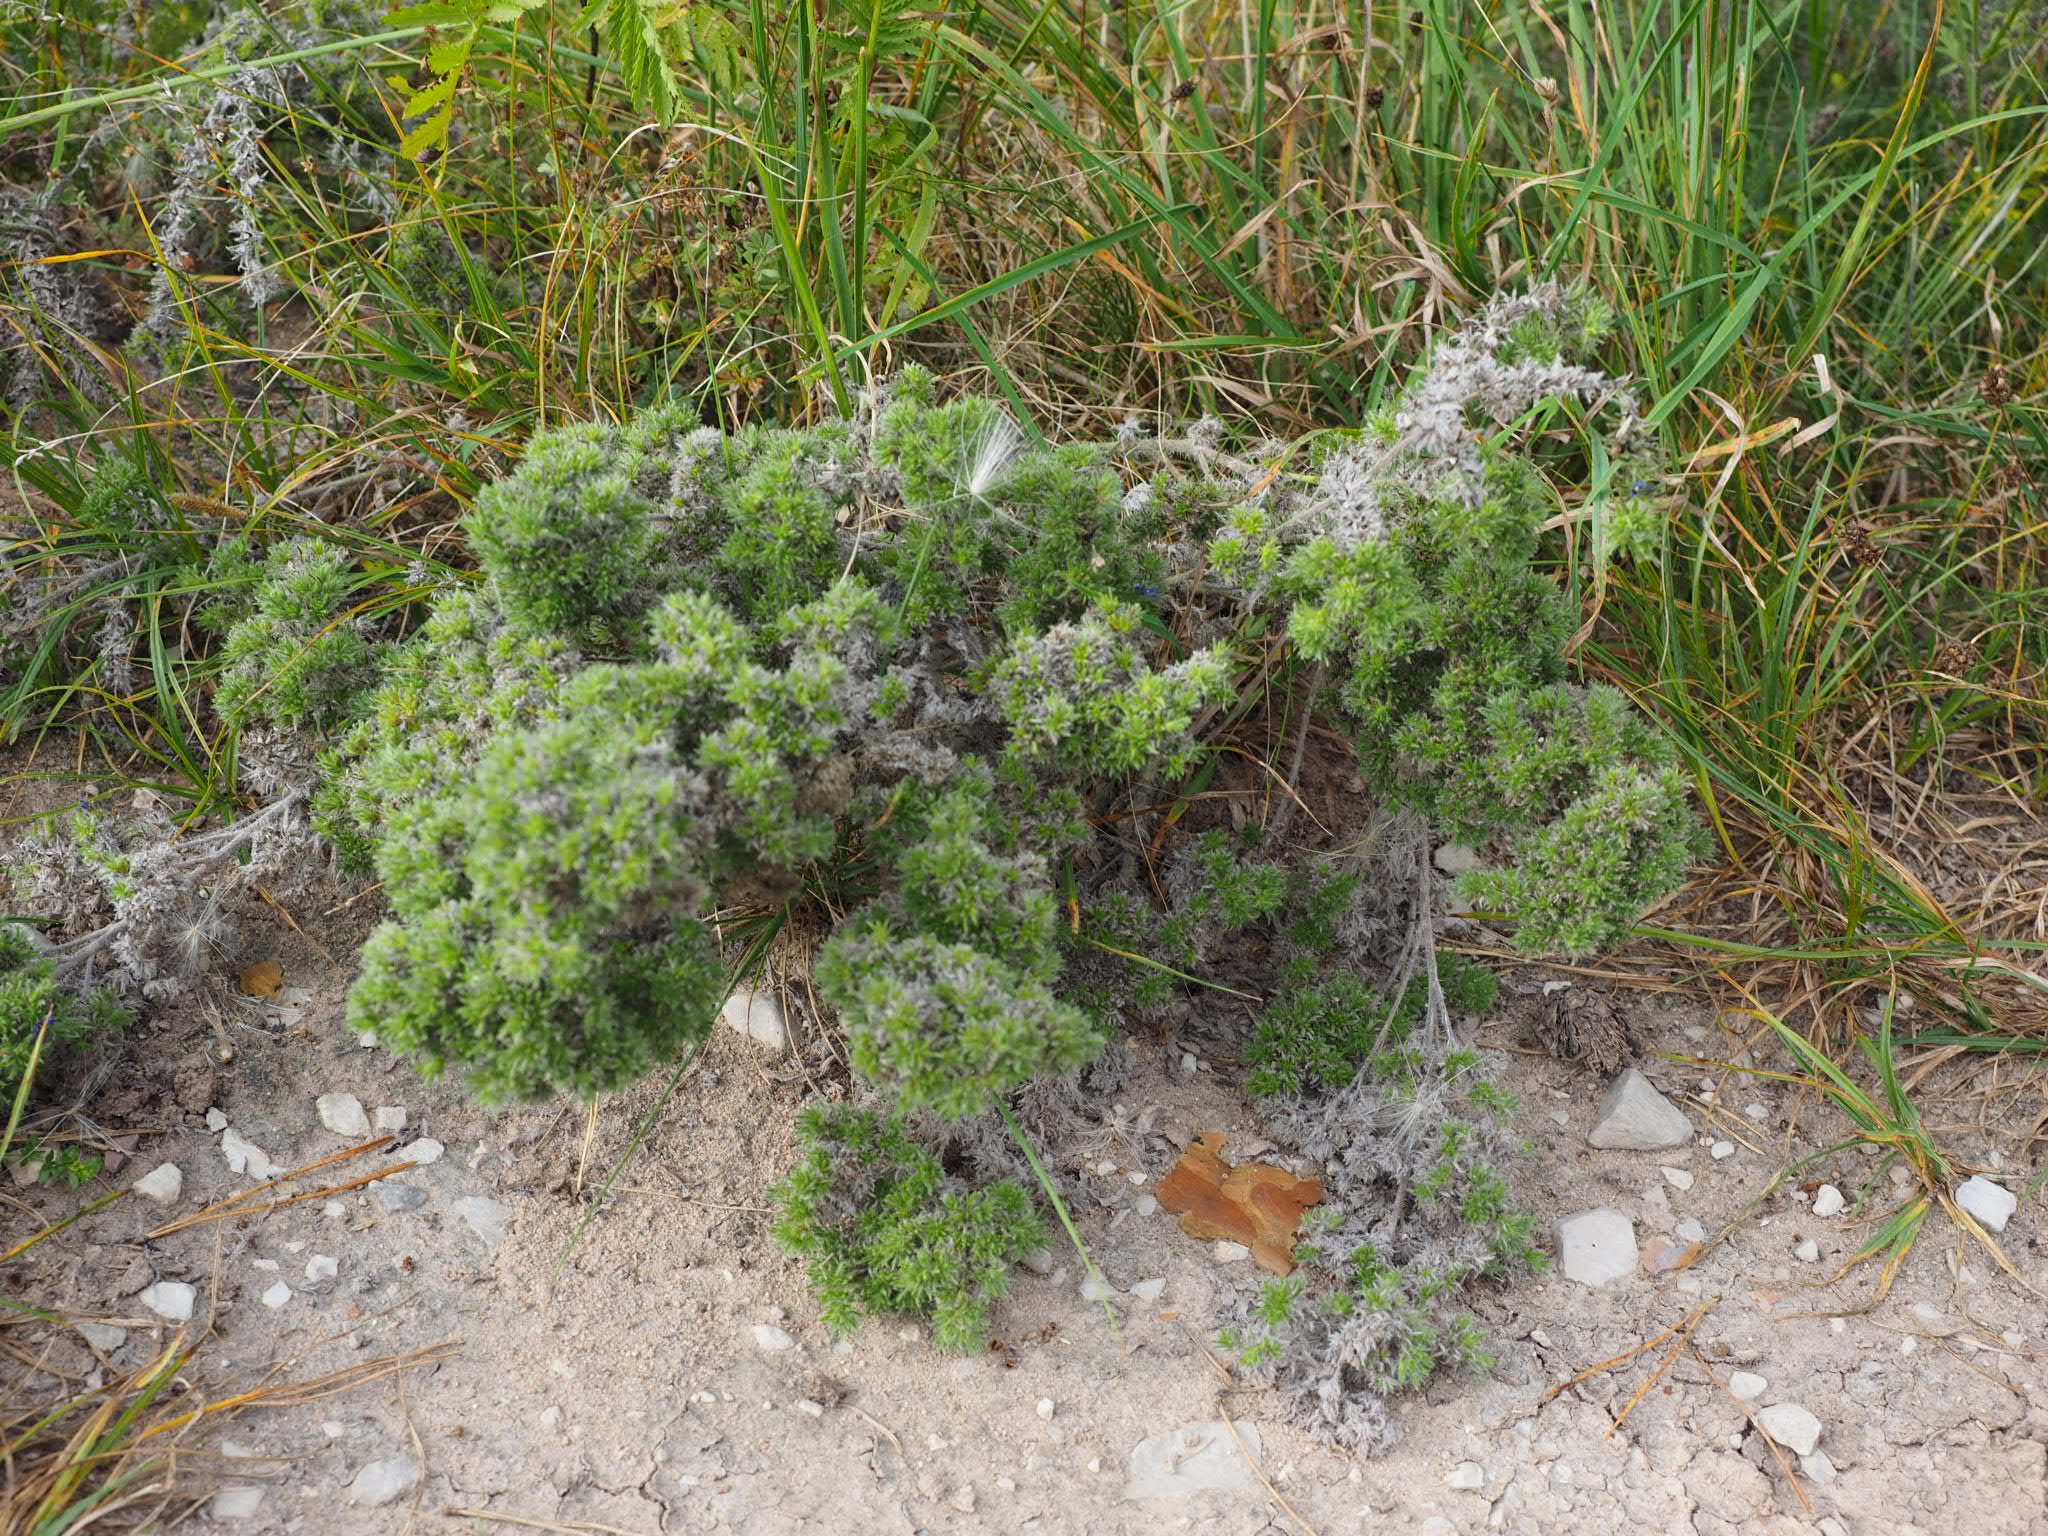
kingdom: Animalia
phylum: Arthropoda
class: Arachnida
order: Trombidiformes
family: Eriophyidae
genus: Aceria
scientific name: Aceria echii
